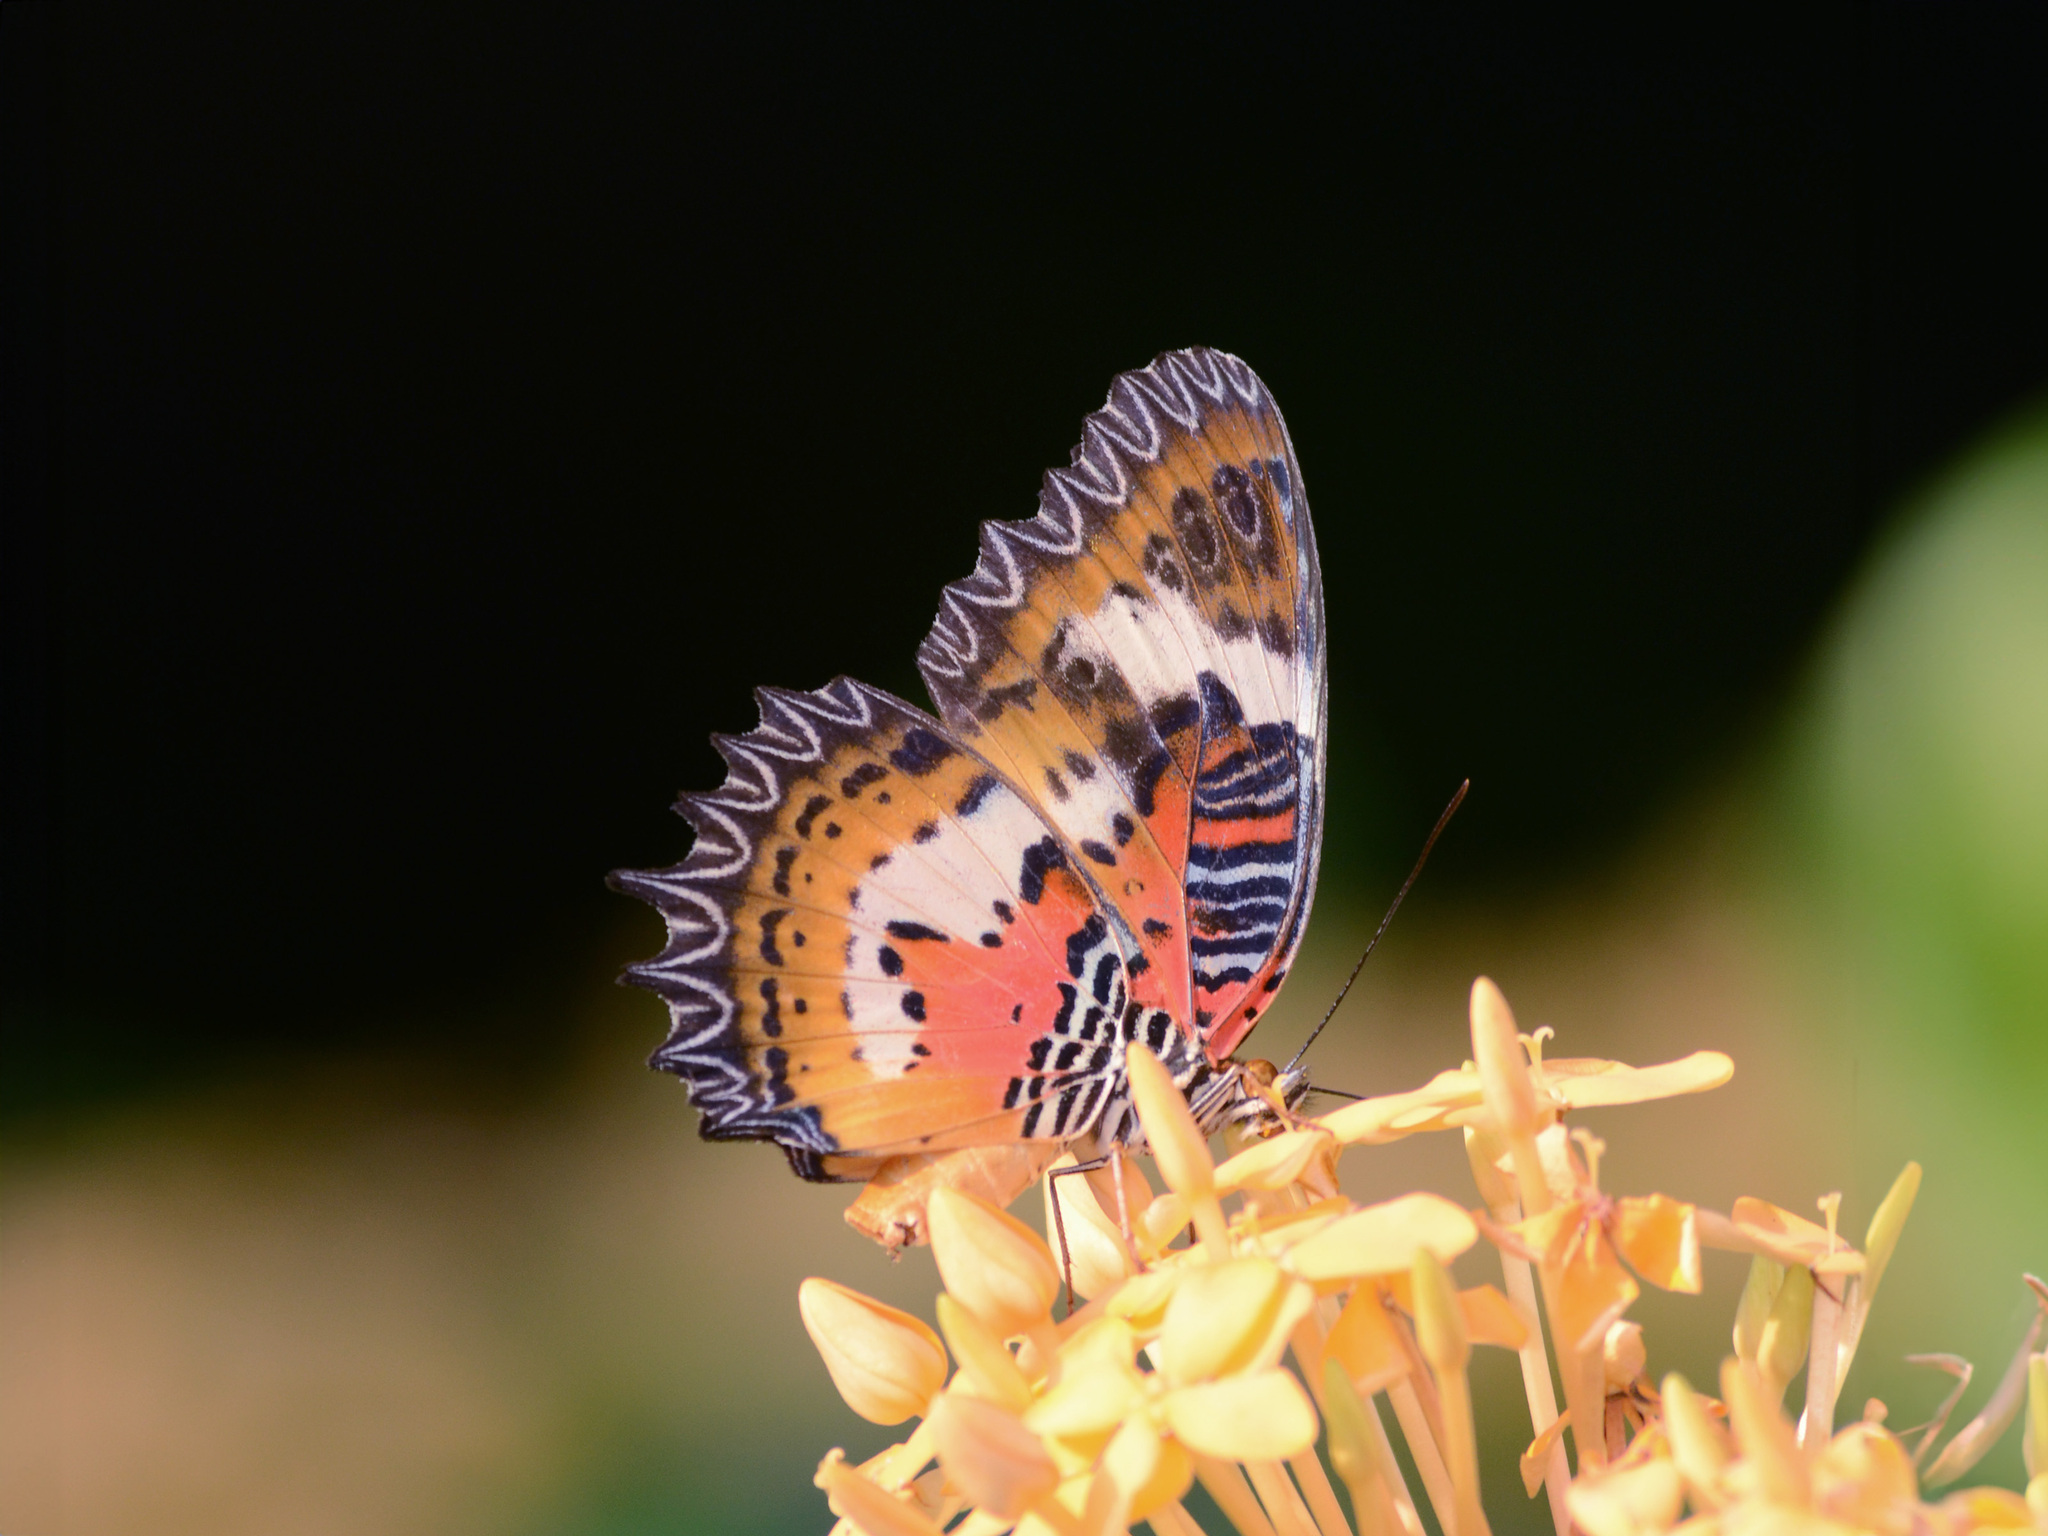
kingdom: Animalia
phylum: Arthropoda
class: Insecta
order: Lepidoptera
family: Nymphalidae
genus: Cethosia
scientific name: Cethosia hypsea
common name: Malayan lacewing butterfly
